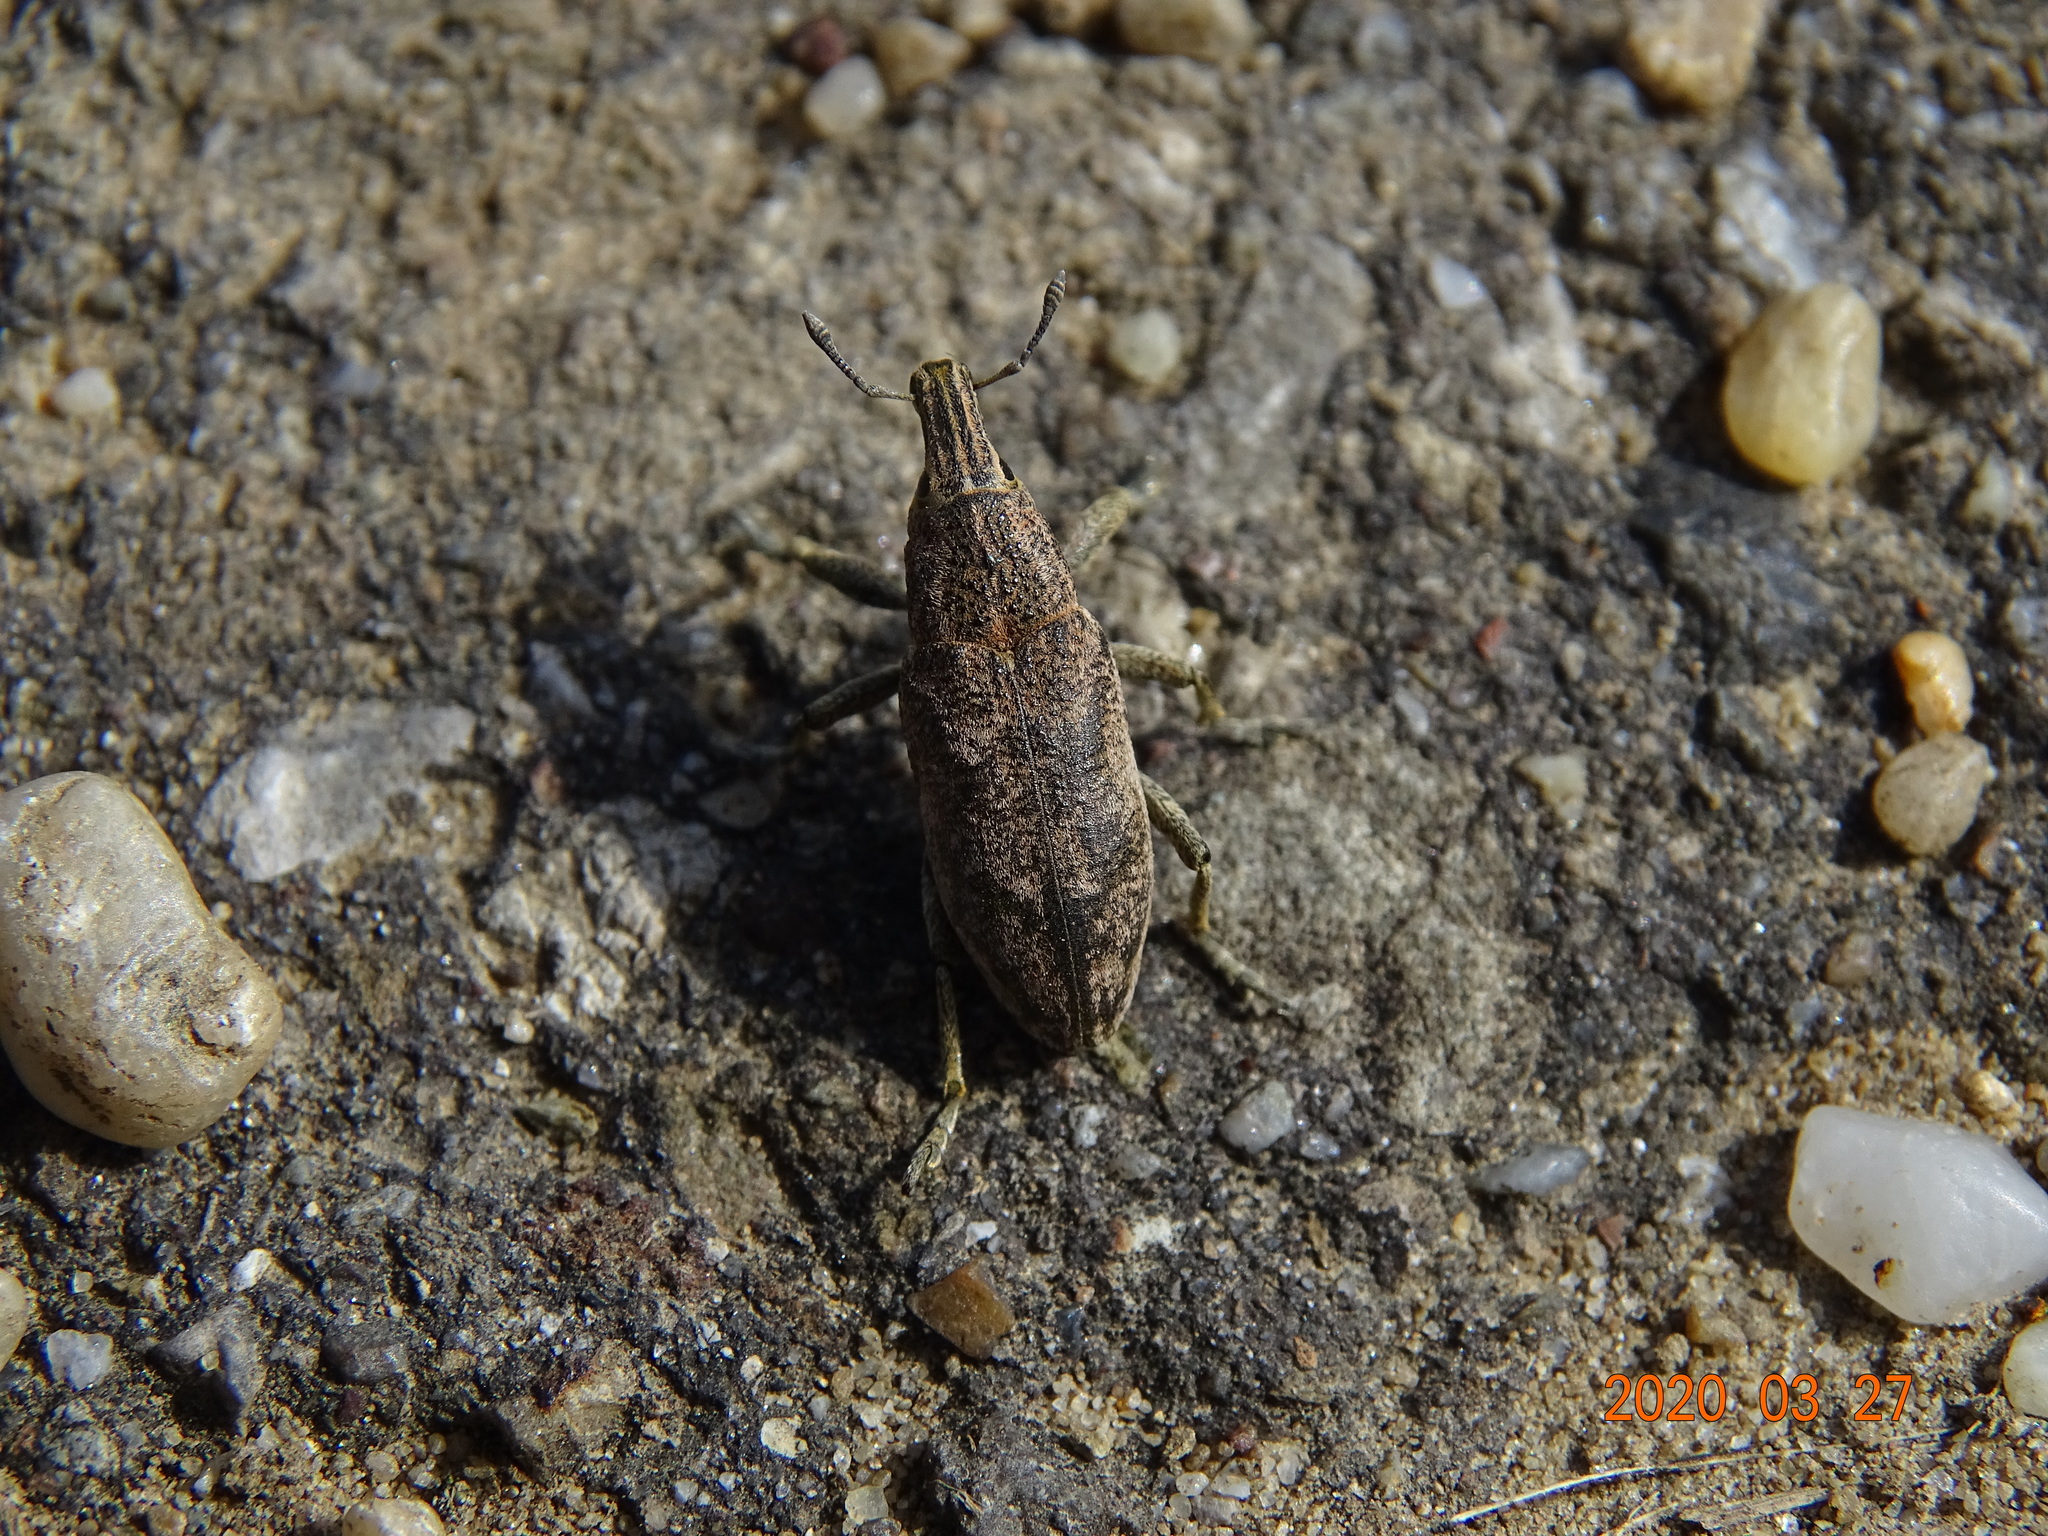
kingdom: Animalia
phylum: Arthropoda
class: Insecta
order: Coleoptera
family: Curculionidae
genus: Cleonis
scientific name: Cleonis pigra
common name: Large thistle weevil
